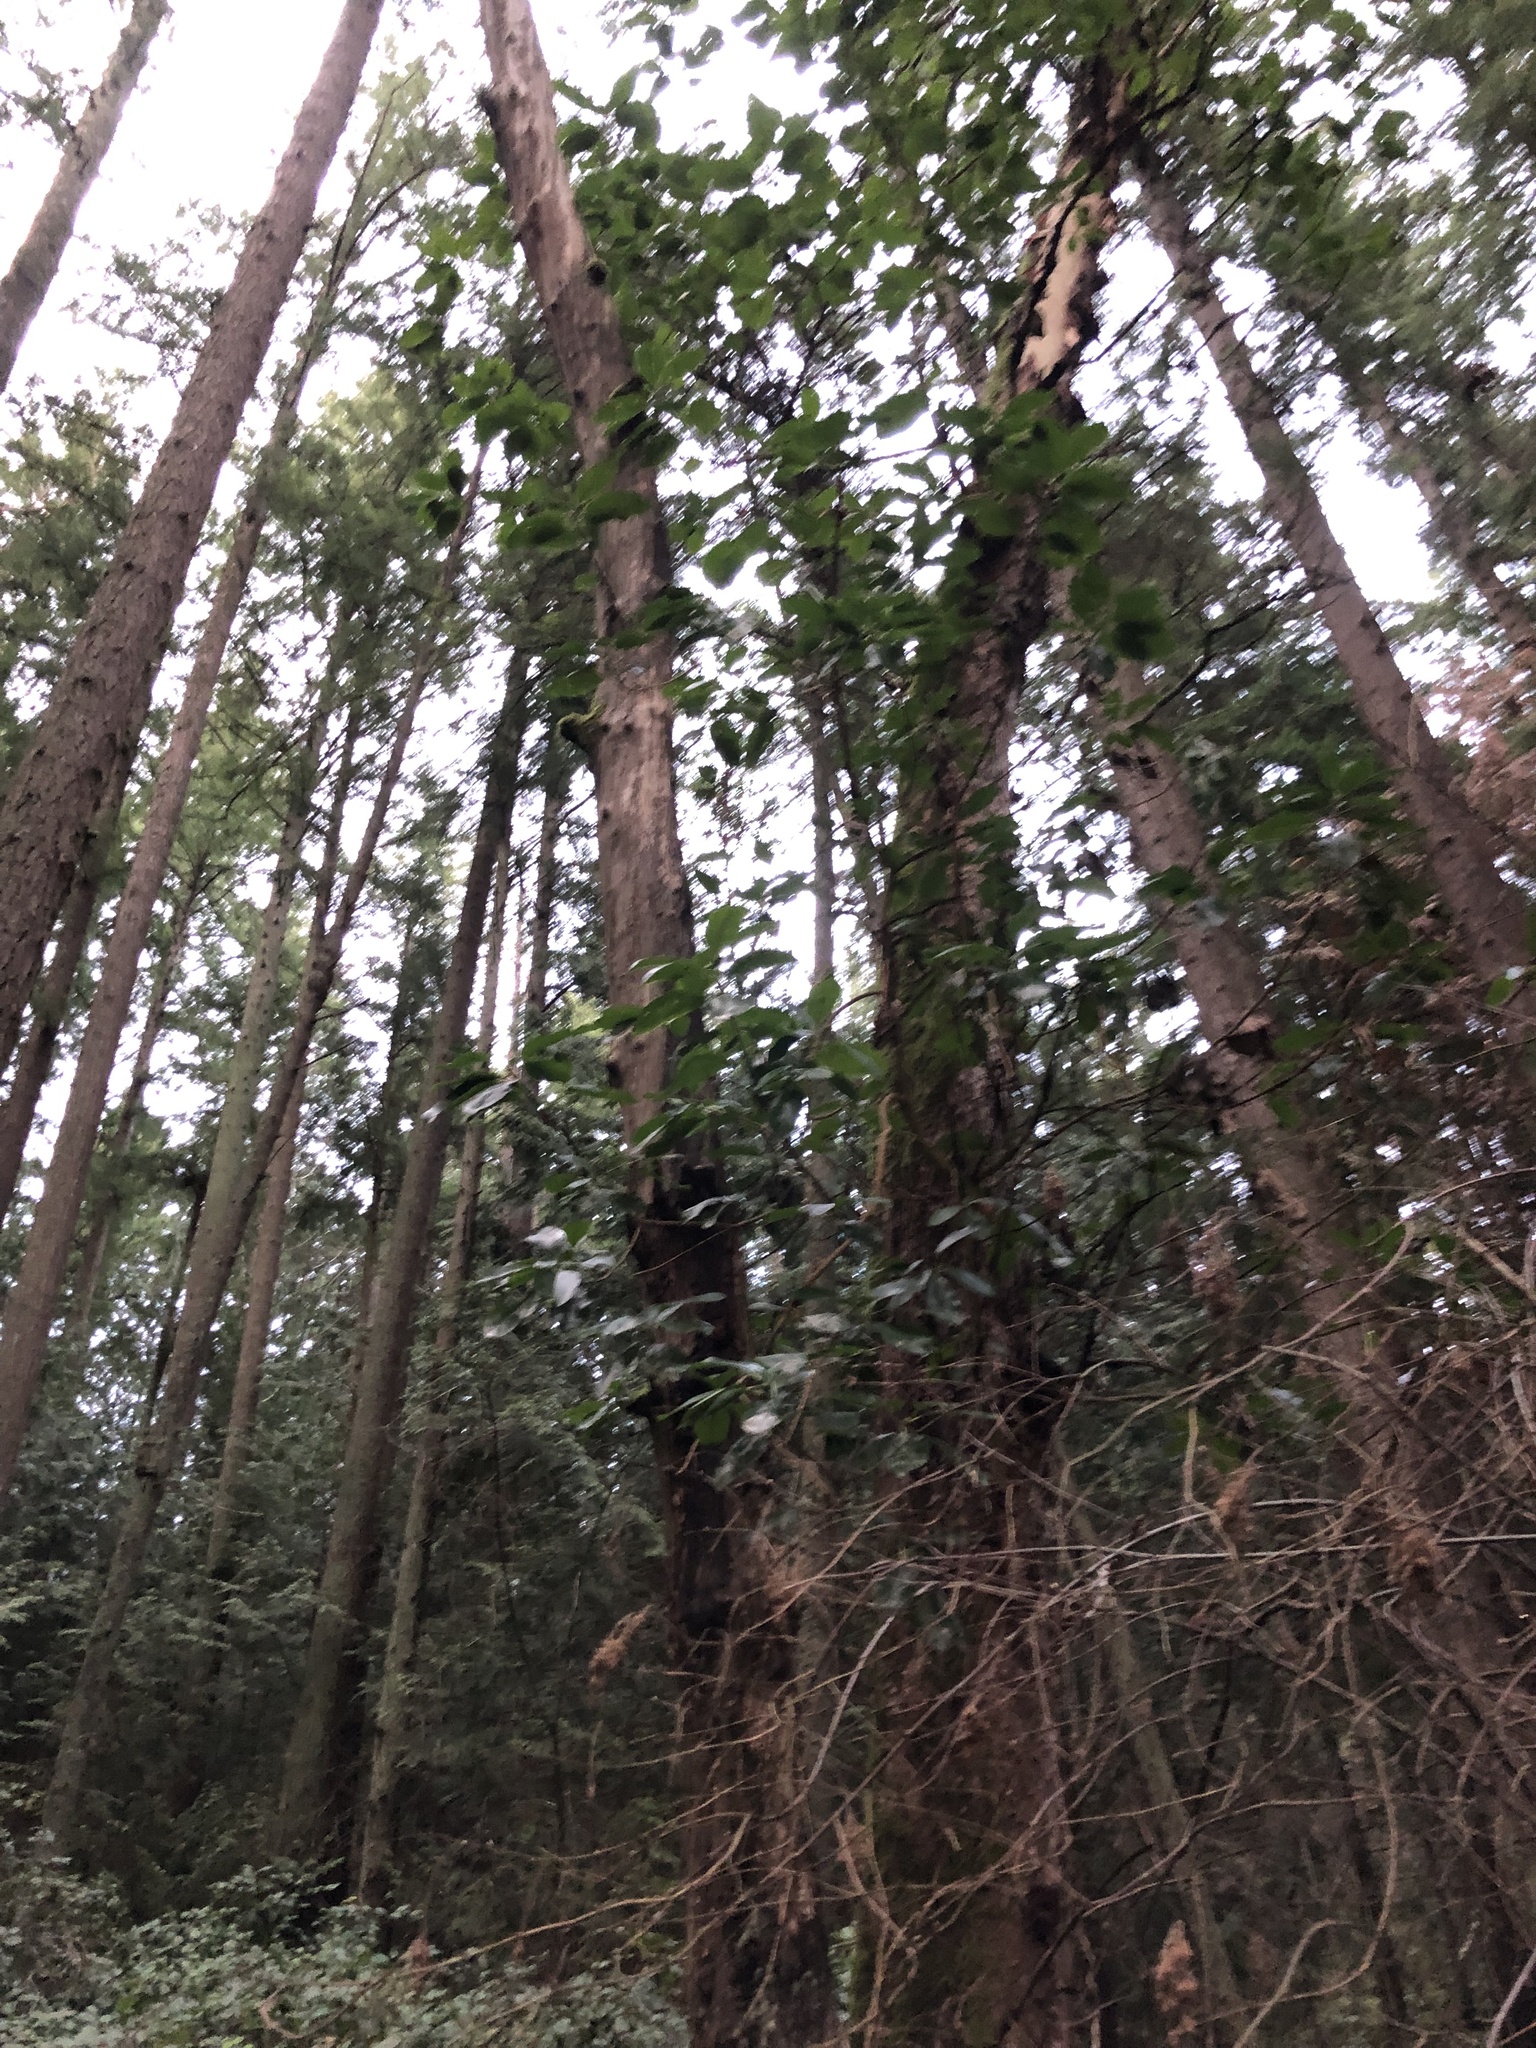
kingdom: Plantae
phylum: Tracheophyta
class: Magnoliopsida
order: Ericales
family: Ericaceae
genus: Arbutus
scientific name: Arbutus menziesii
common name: Pacific madrone
